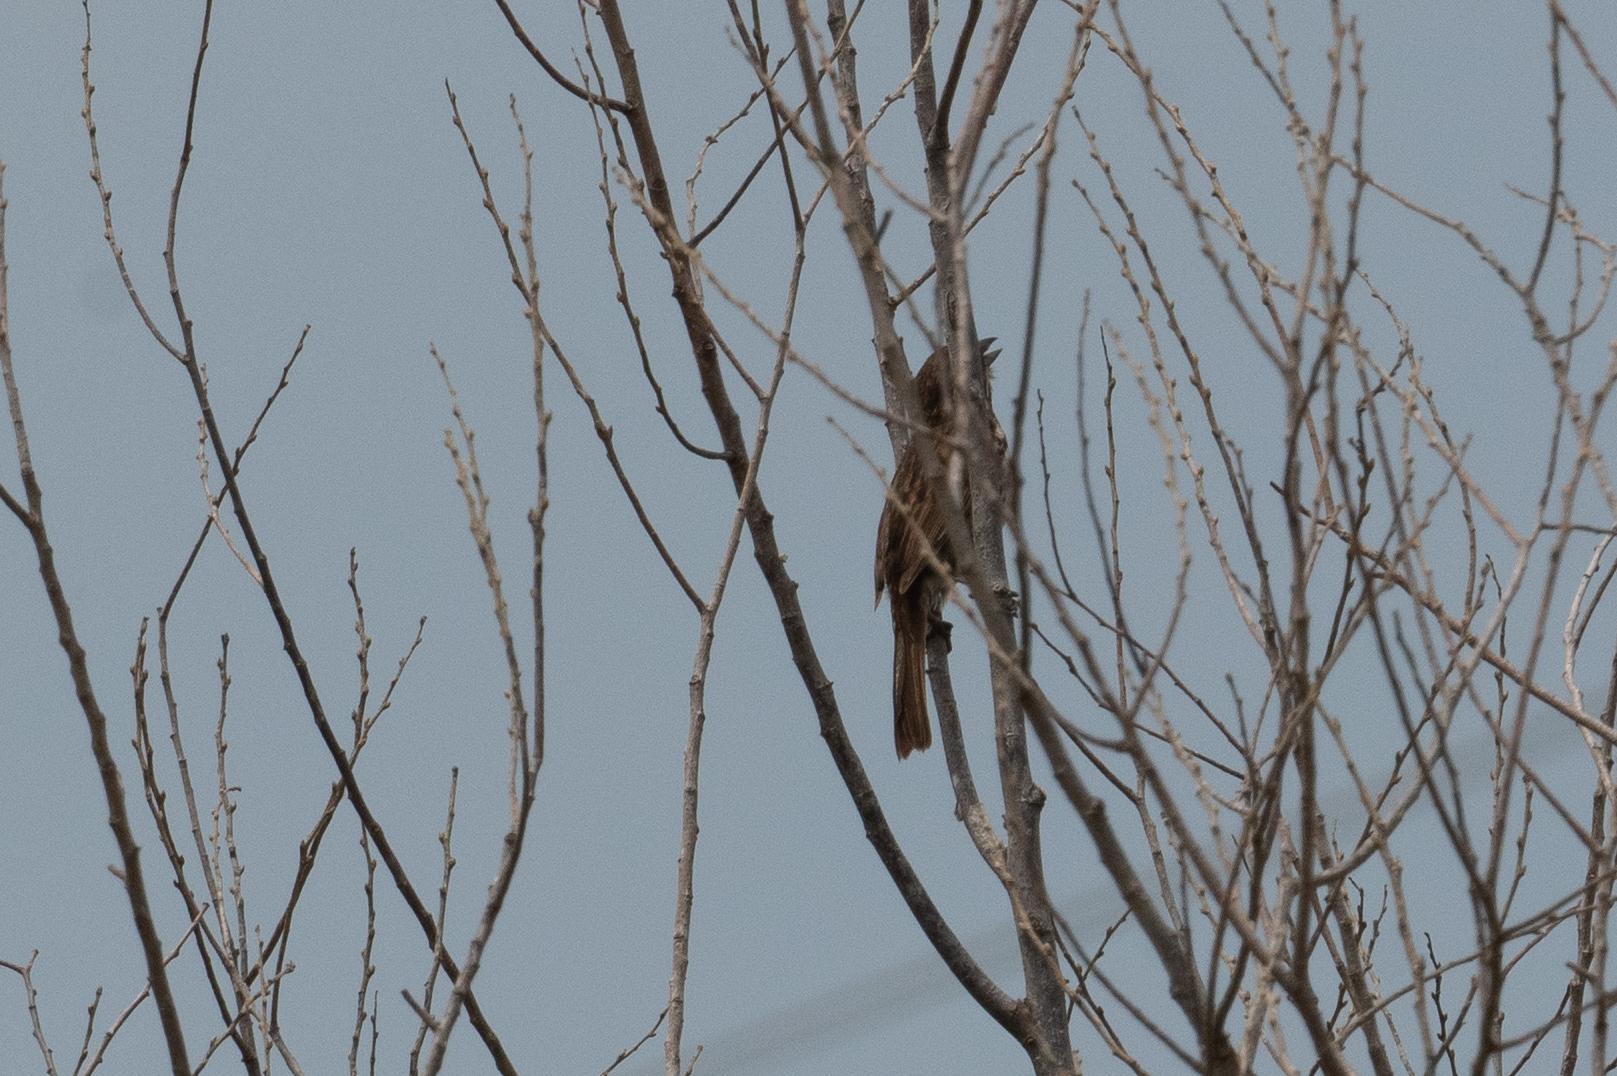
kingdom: Animalia
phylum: Chordata
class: Aves
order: Passeriformes
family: Passerellidae
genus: Melospiza
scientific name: Melospiza melodia
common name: Song sparrow
